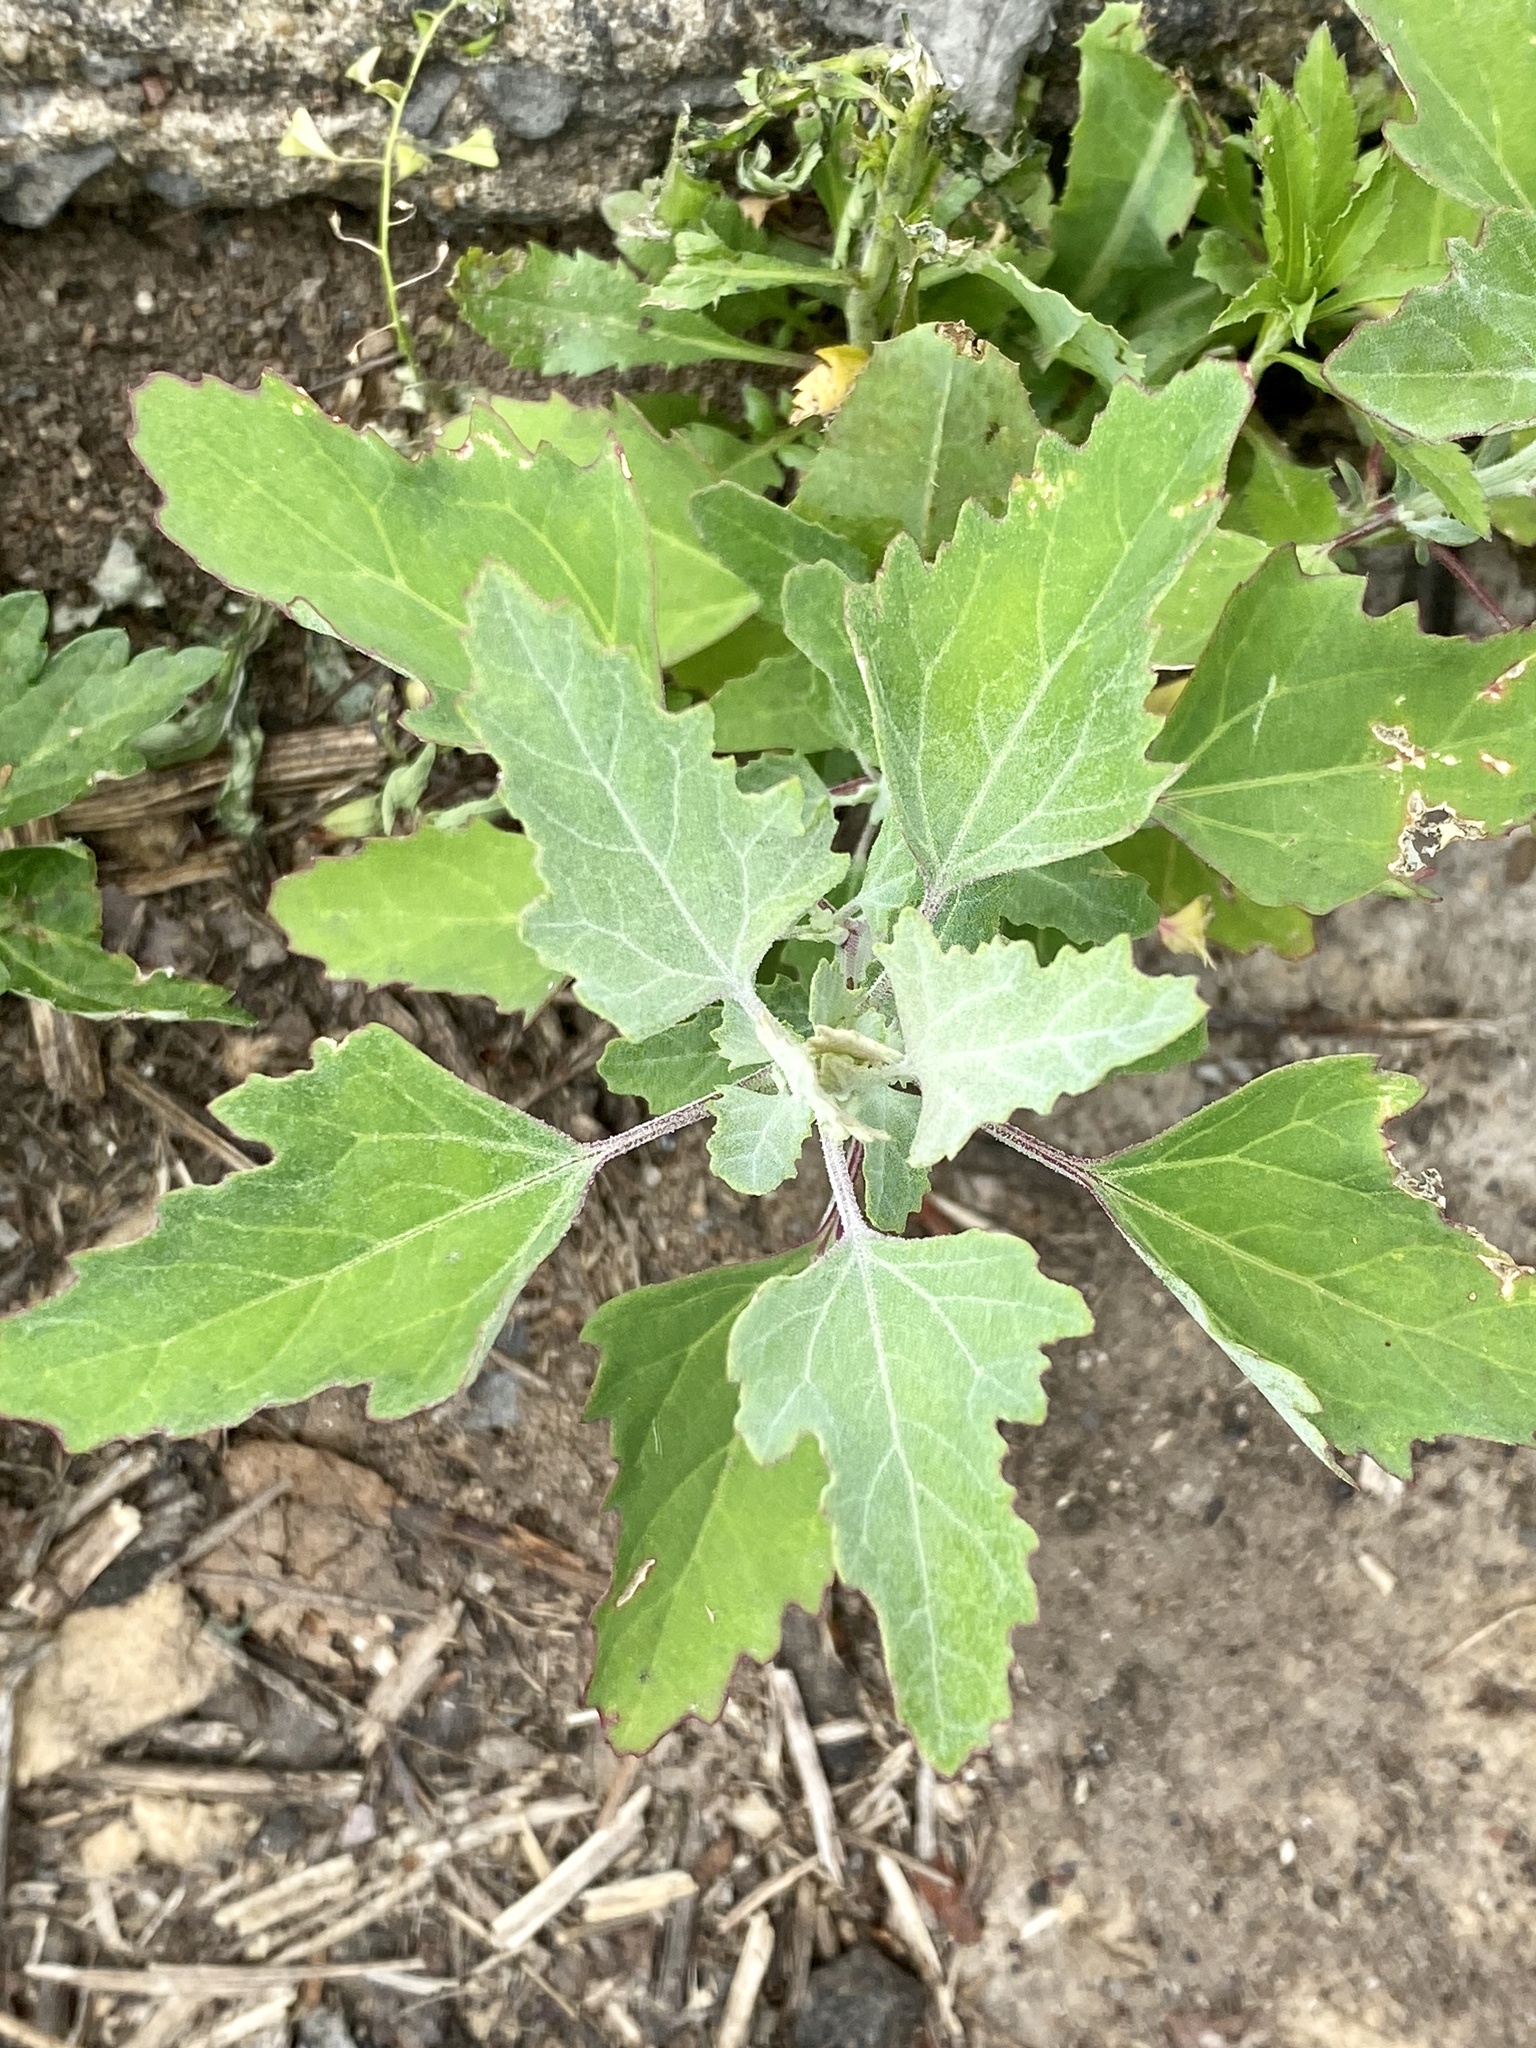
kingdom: Plantae
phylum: Tracheophyta
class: Magnoliopsida
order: Caryophyllales
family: Amaranthaceae
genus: Chenopodium
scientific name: Chenopodium album
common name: Fat-hen
